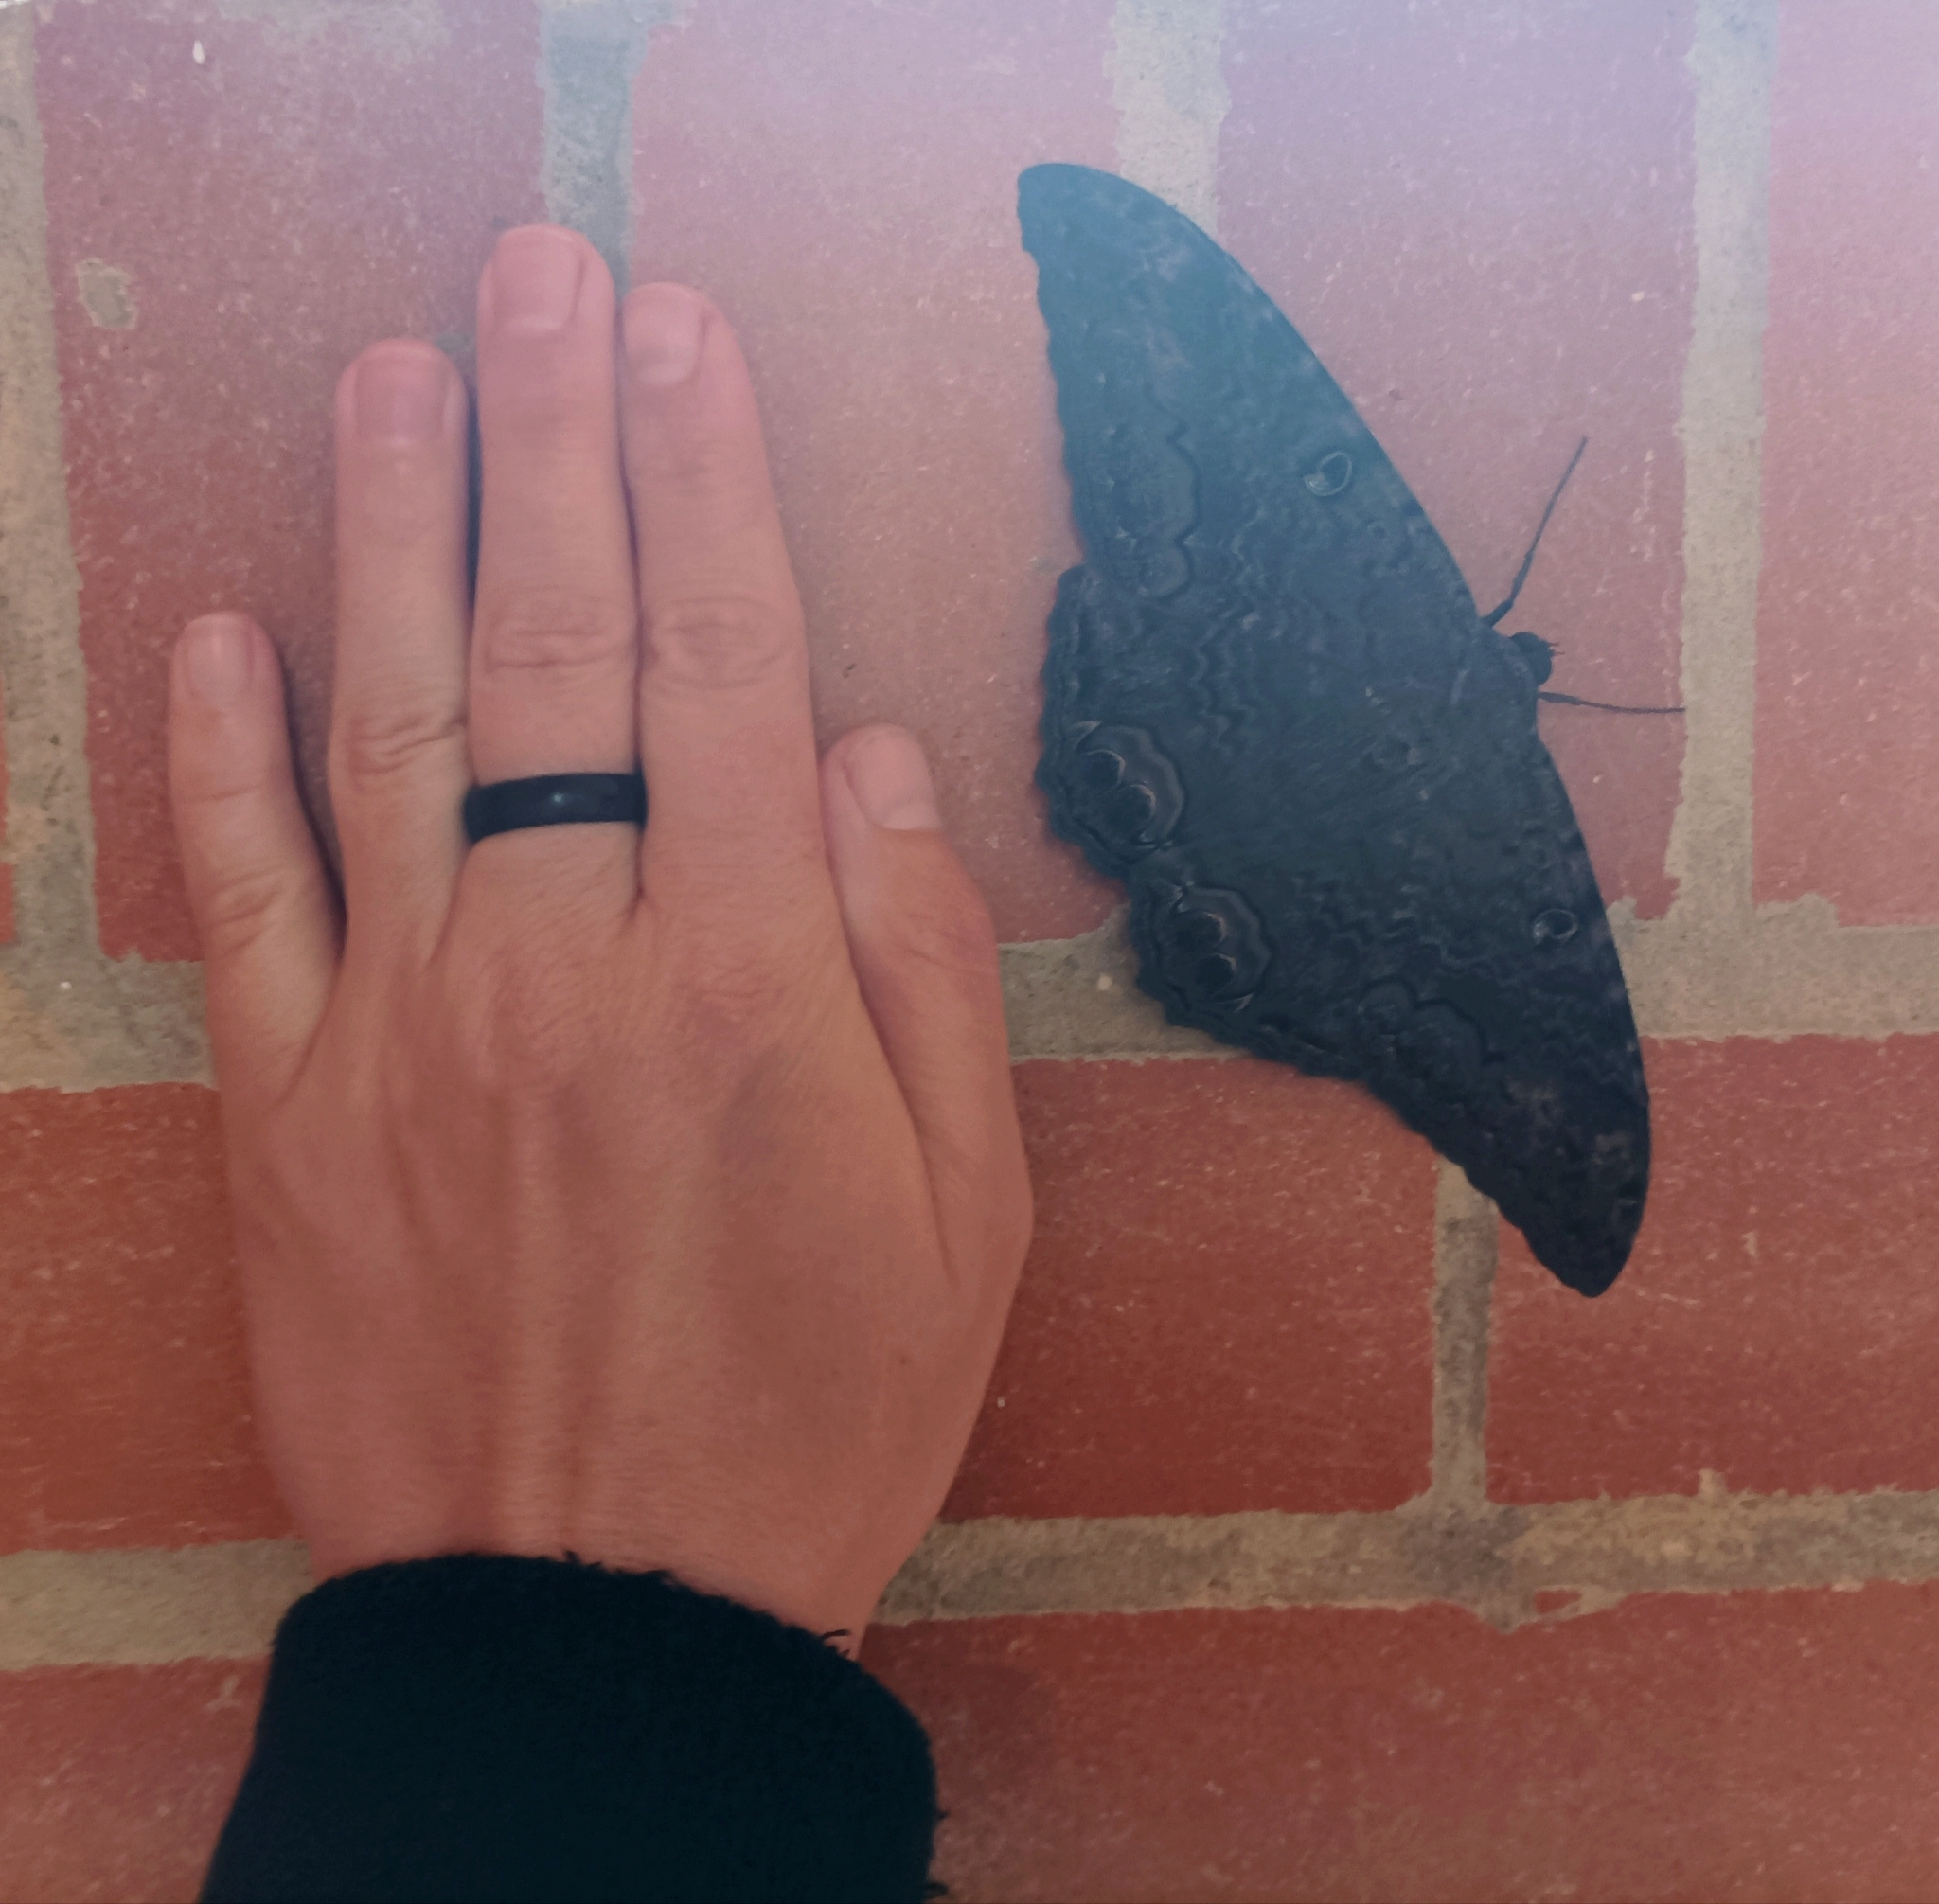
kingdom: Animalia
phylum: Arthropoda
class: Insecta
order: Lepidoptera
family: Erebidae
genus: Ascalapha
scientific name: Ascalapha odorata
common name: Black witch
